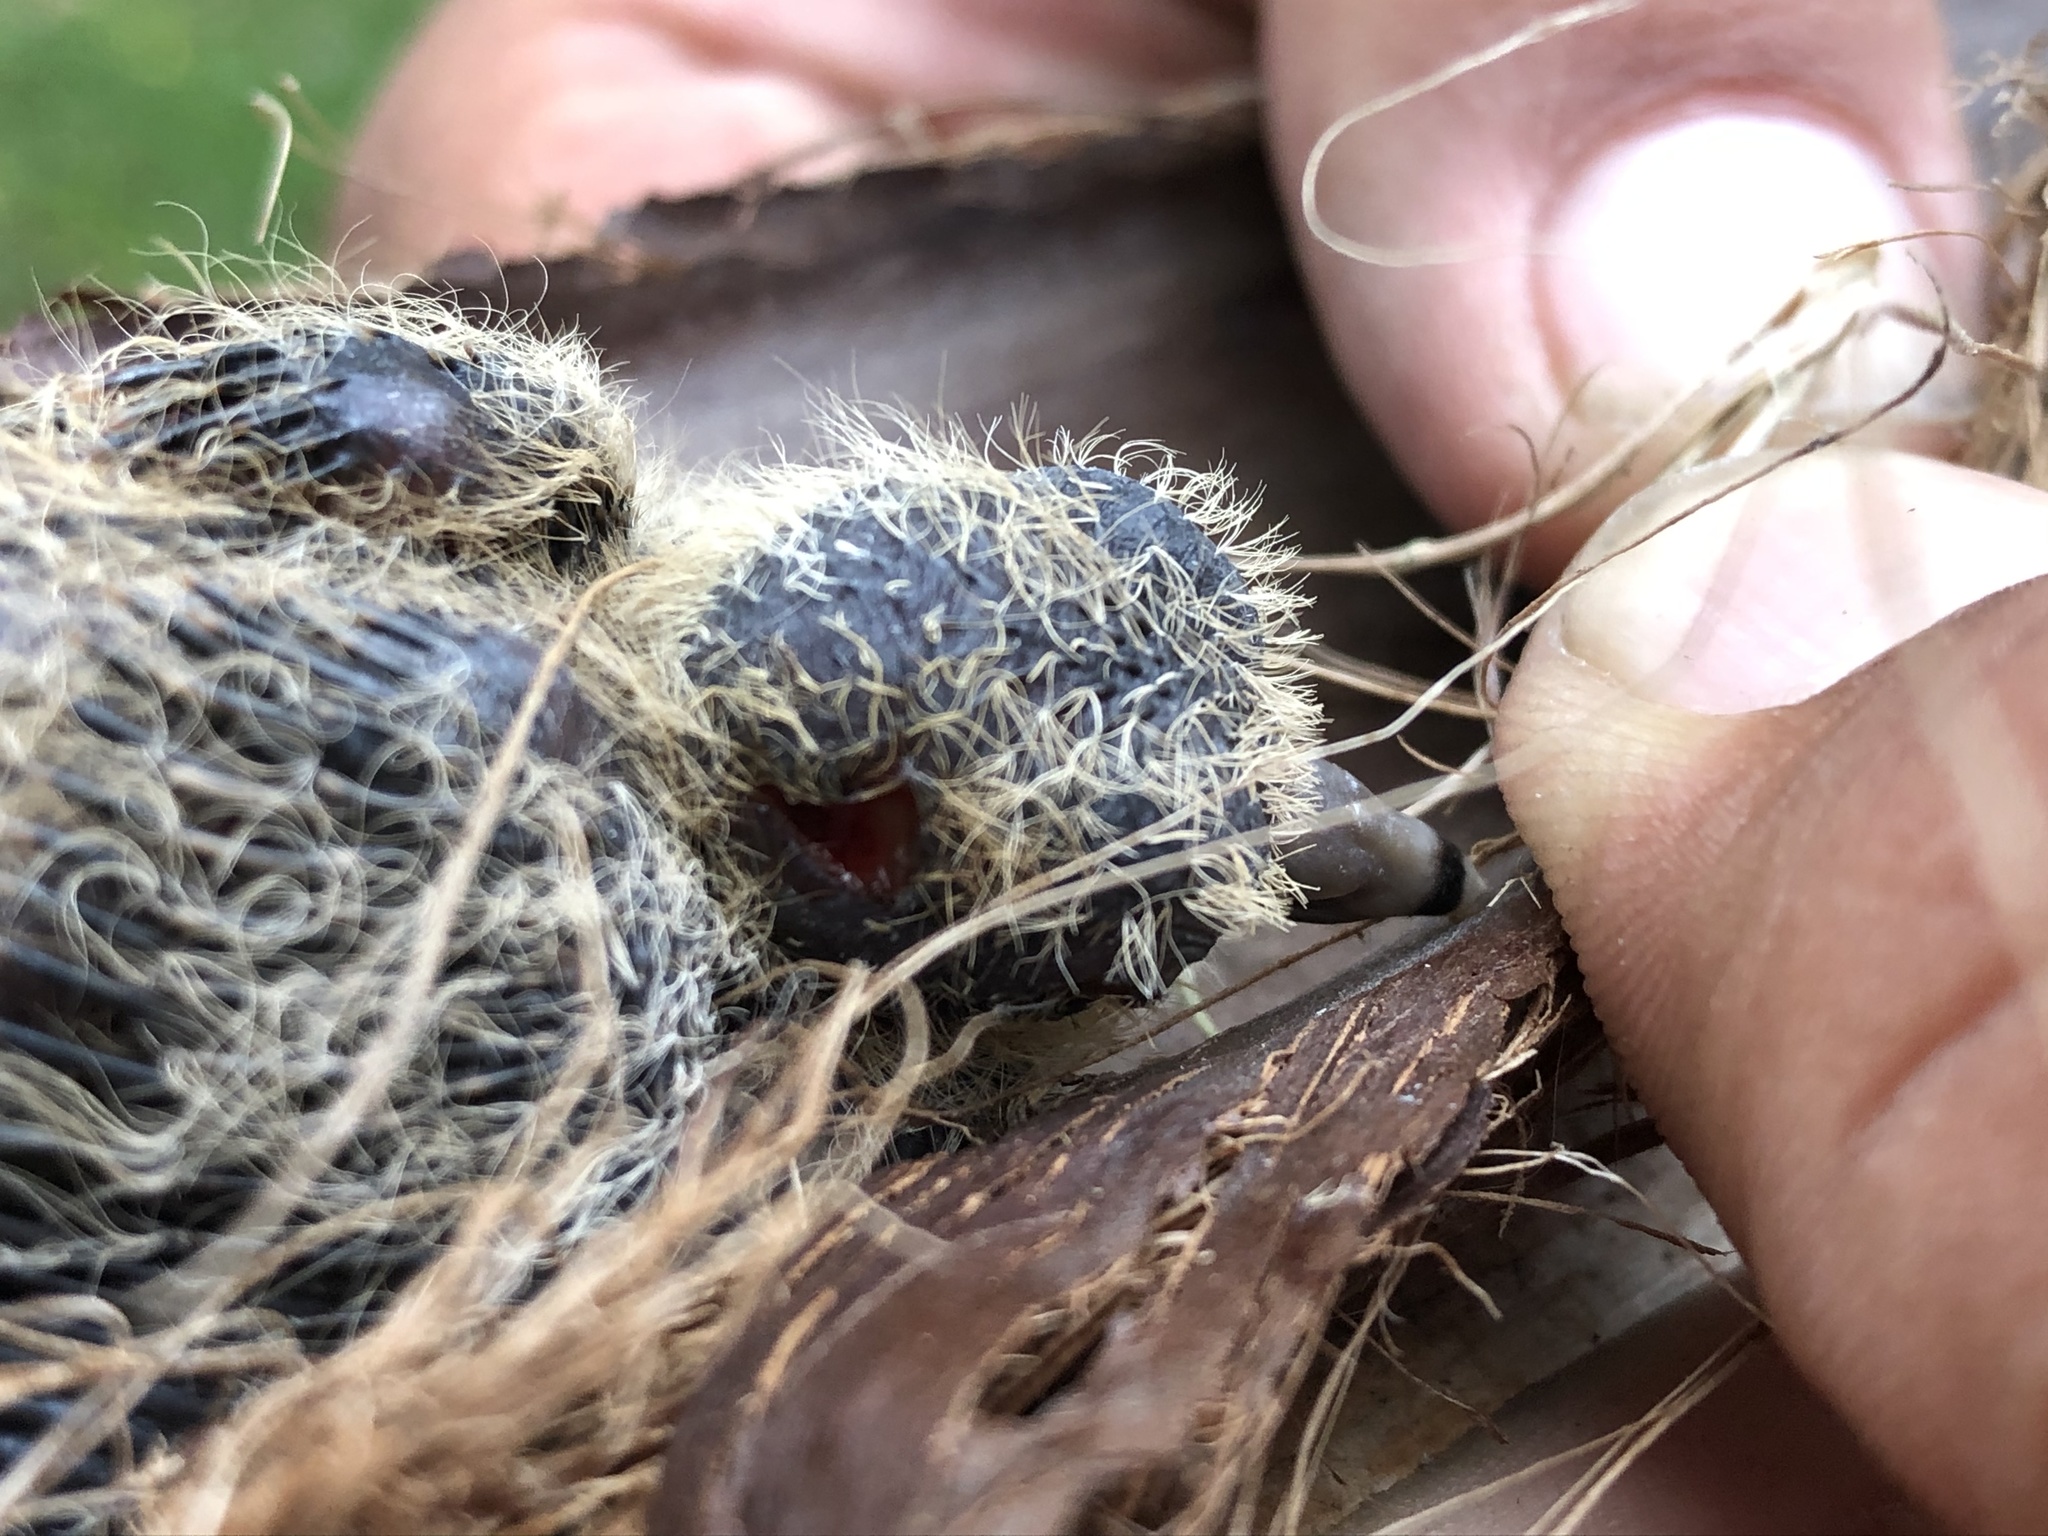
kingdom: Animalia
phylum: Chordata
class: Aves
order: Columbiformes
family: Columbidae
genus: Zenaida
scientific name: Zenaida meloda
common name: West peruvian dove
